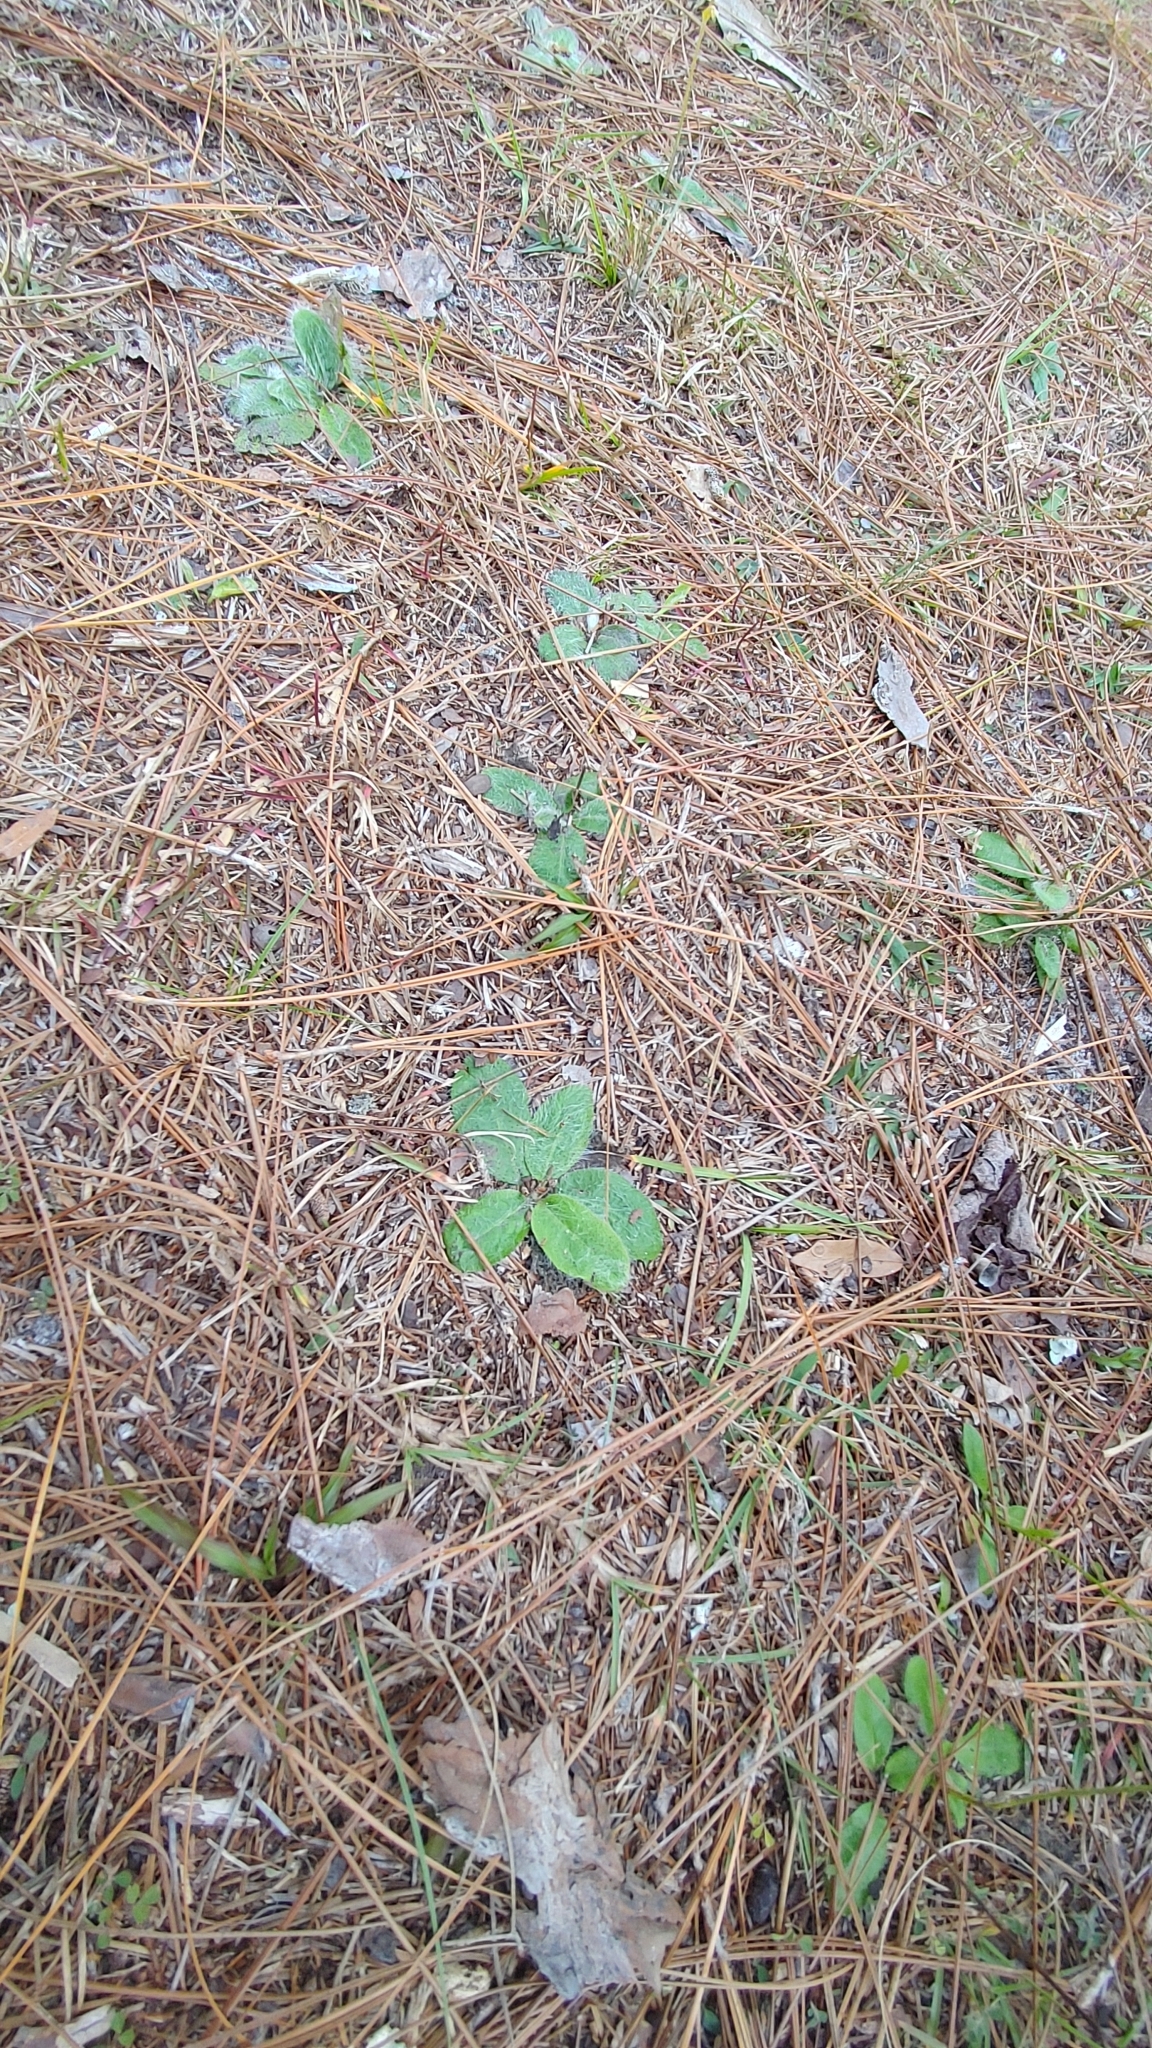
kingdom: Plantae
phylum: Tracheophyta
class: Magnoliopsida
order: Asterales
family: Asteraceae
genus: Hieracium
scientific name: Hieracium megacephalum
